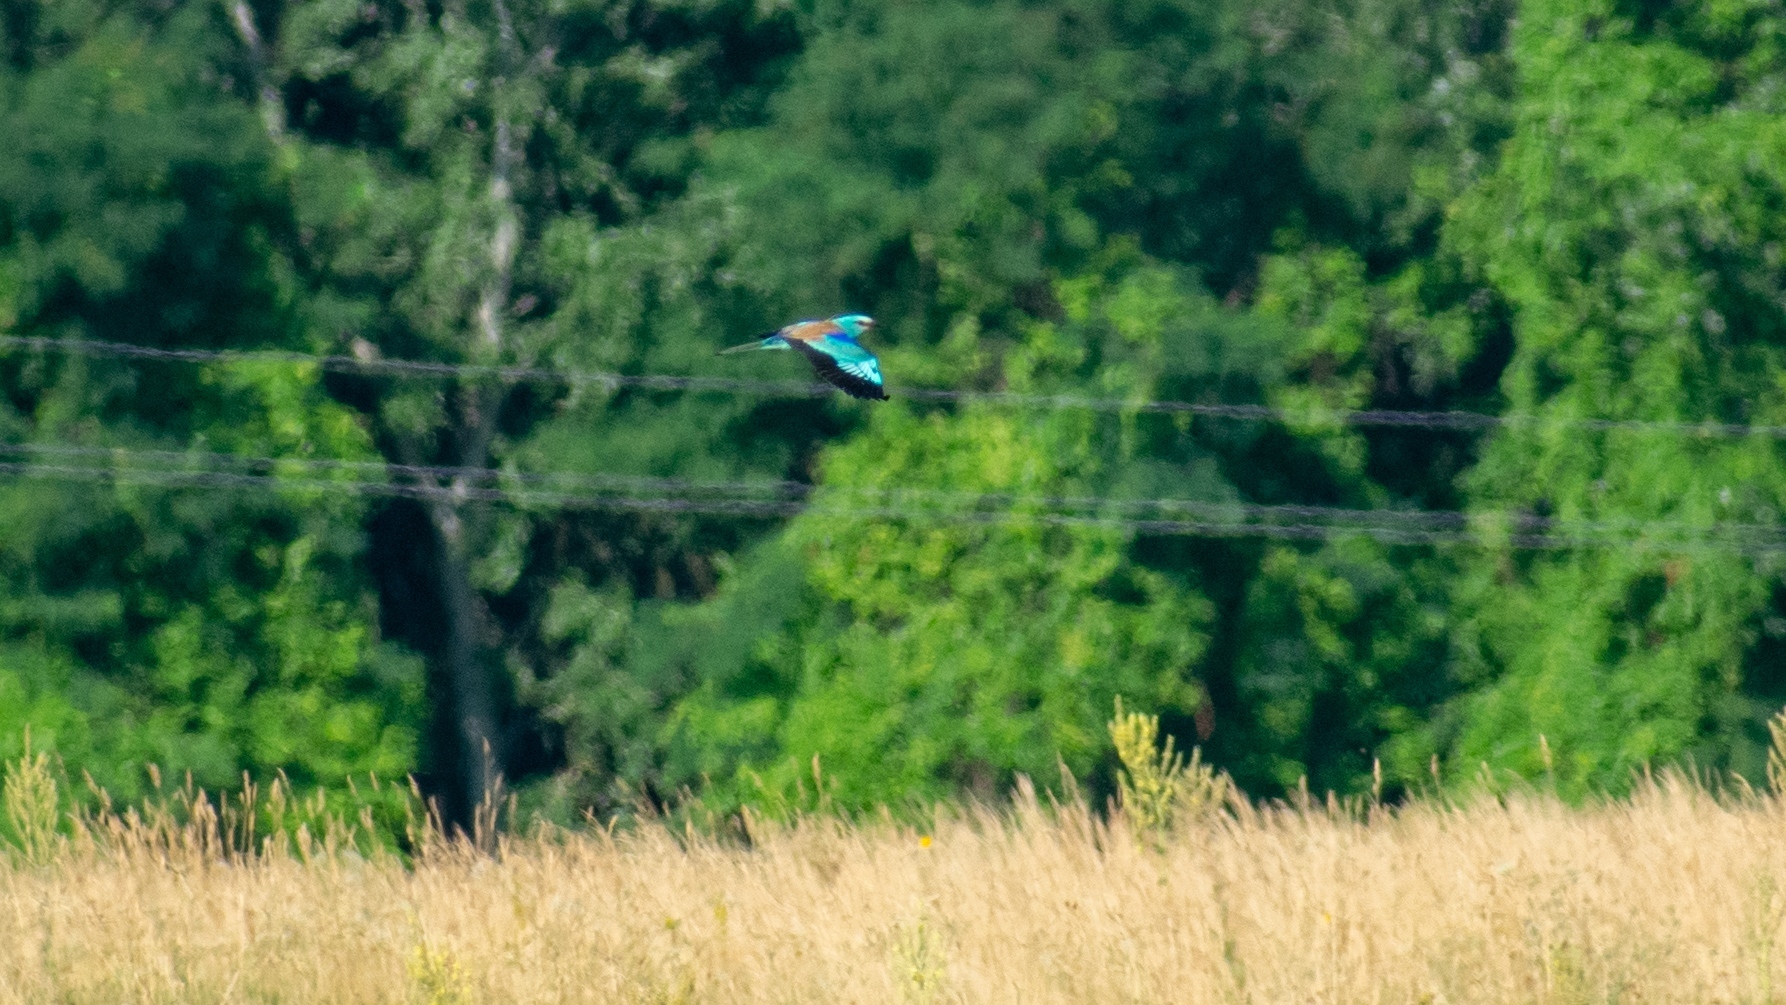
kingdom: Animalia
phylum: Chordata
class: Aves
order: Coraciiformes
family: Coraciidae
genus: Coracias
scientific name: Coracias garrulus
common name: European roller
